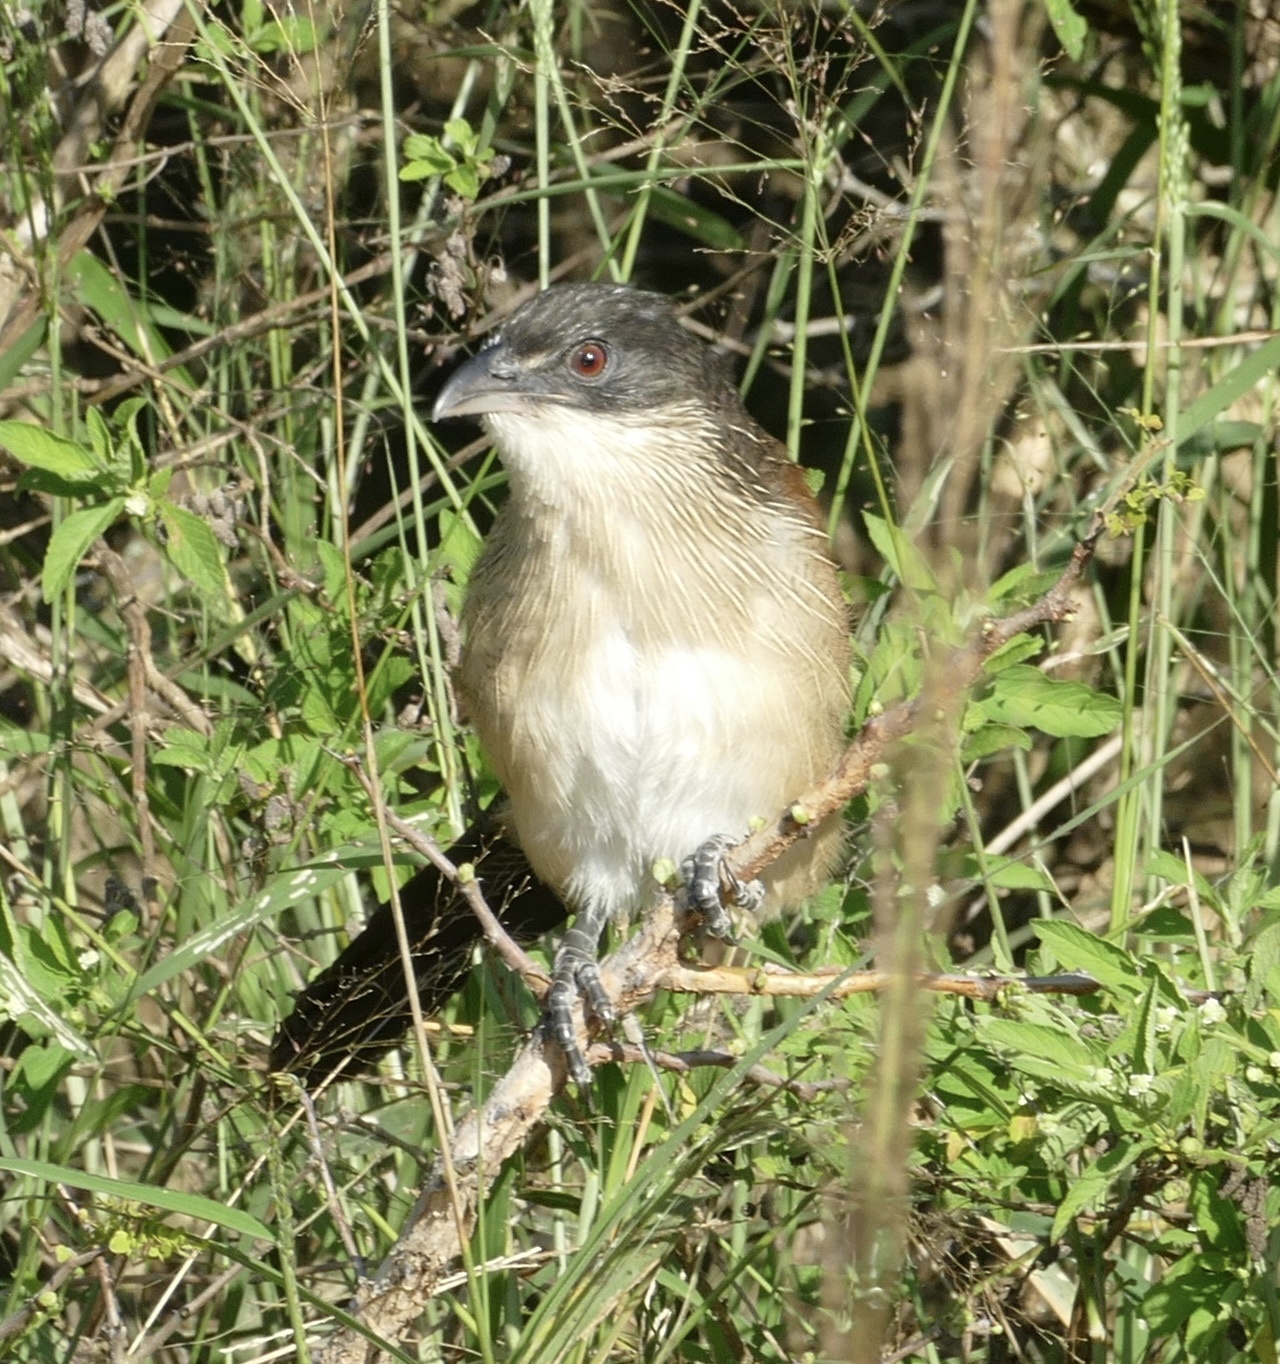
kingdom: Animalia
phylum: Chordata
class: Aves
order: Cuculiformes
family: Cuculidae
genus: Centropus
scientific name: Centropus superciliosus
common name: White-browed coucal
